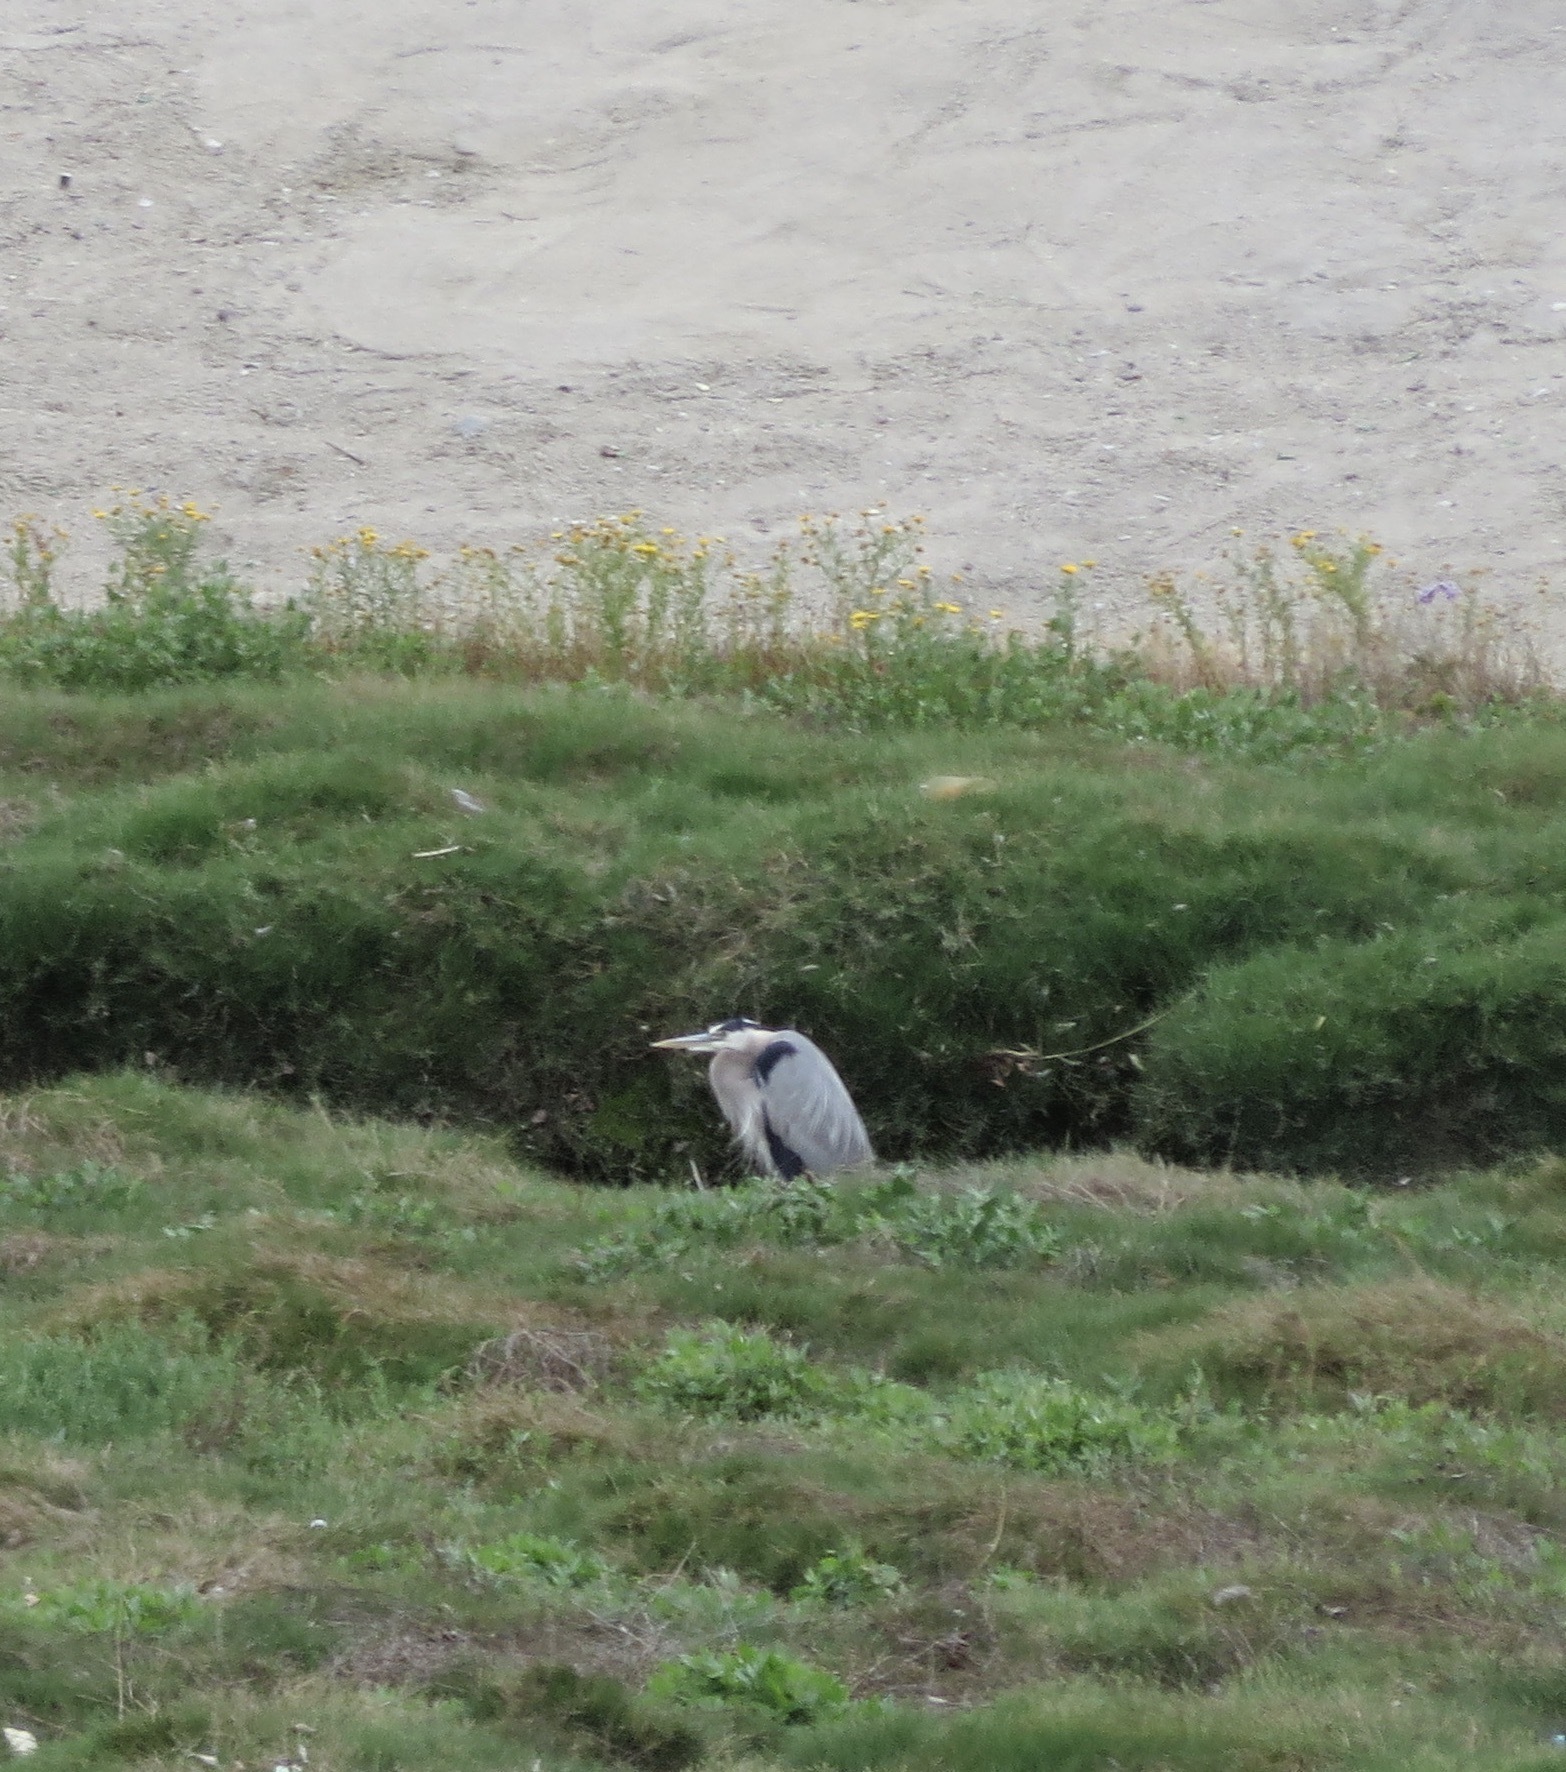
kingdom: Animalia
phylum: Chordata
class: Aves
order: Pelecaniformes
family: Ardeidae
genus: Ardea
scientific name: Ardea herodias
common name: Great blue heron
